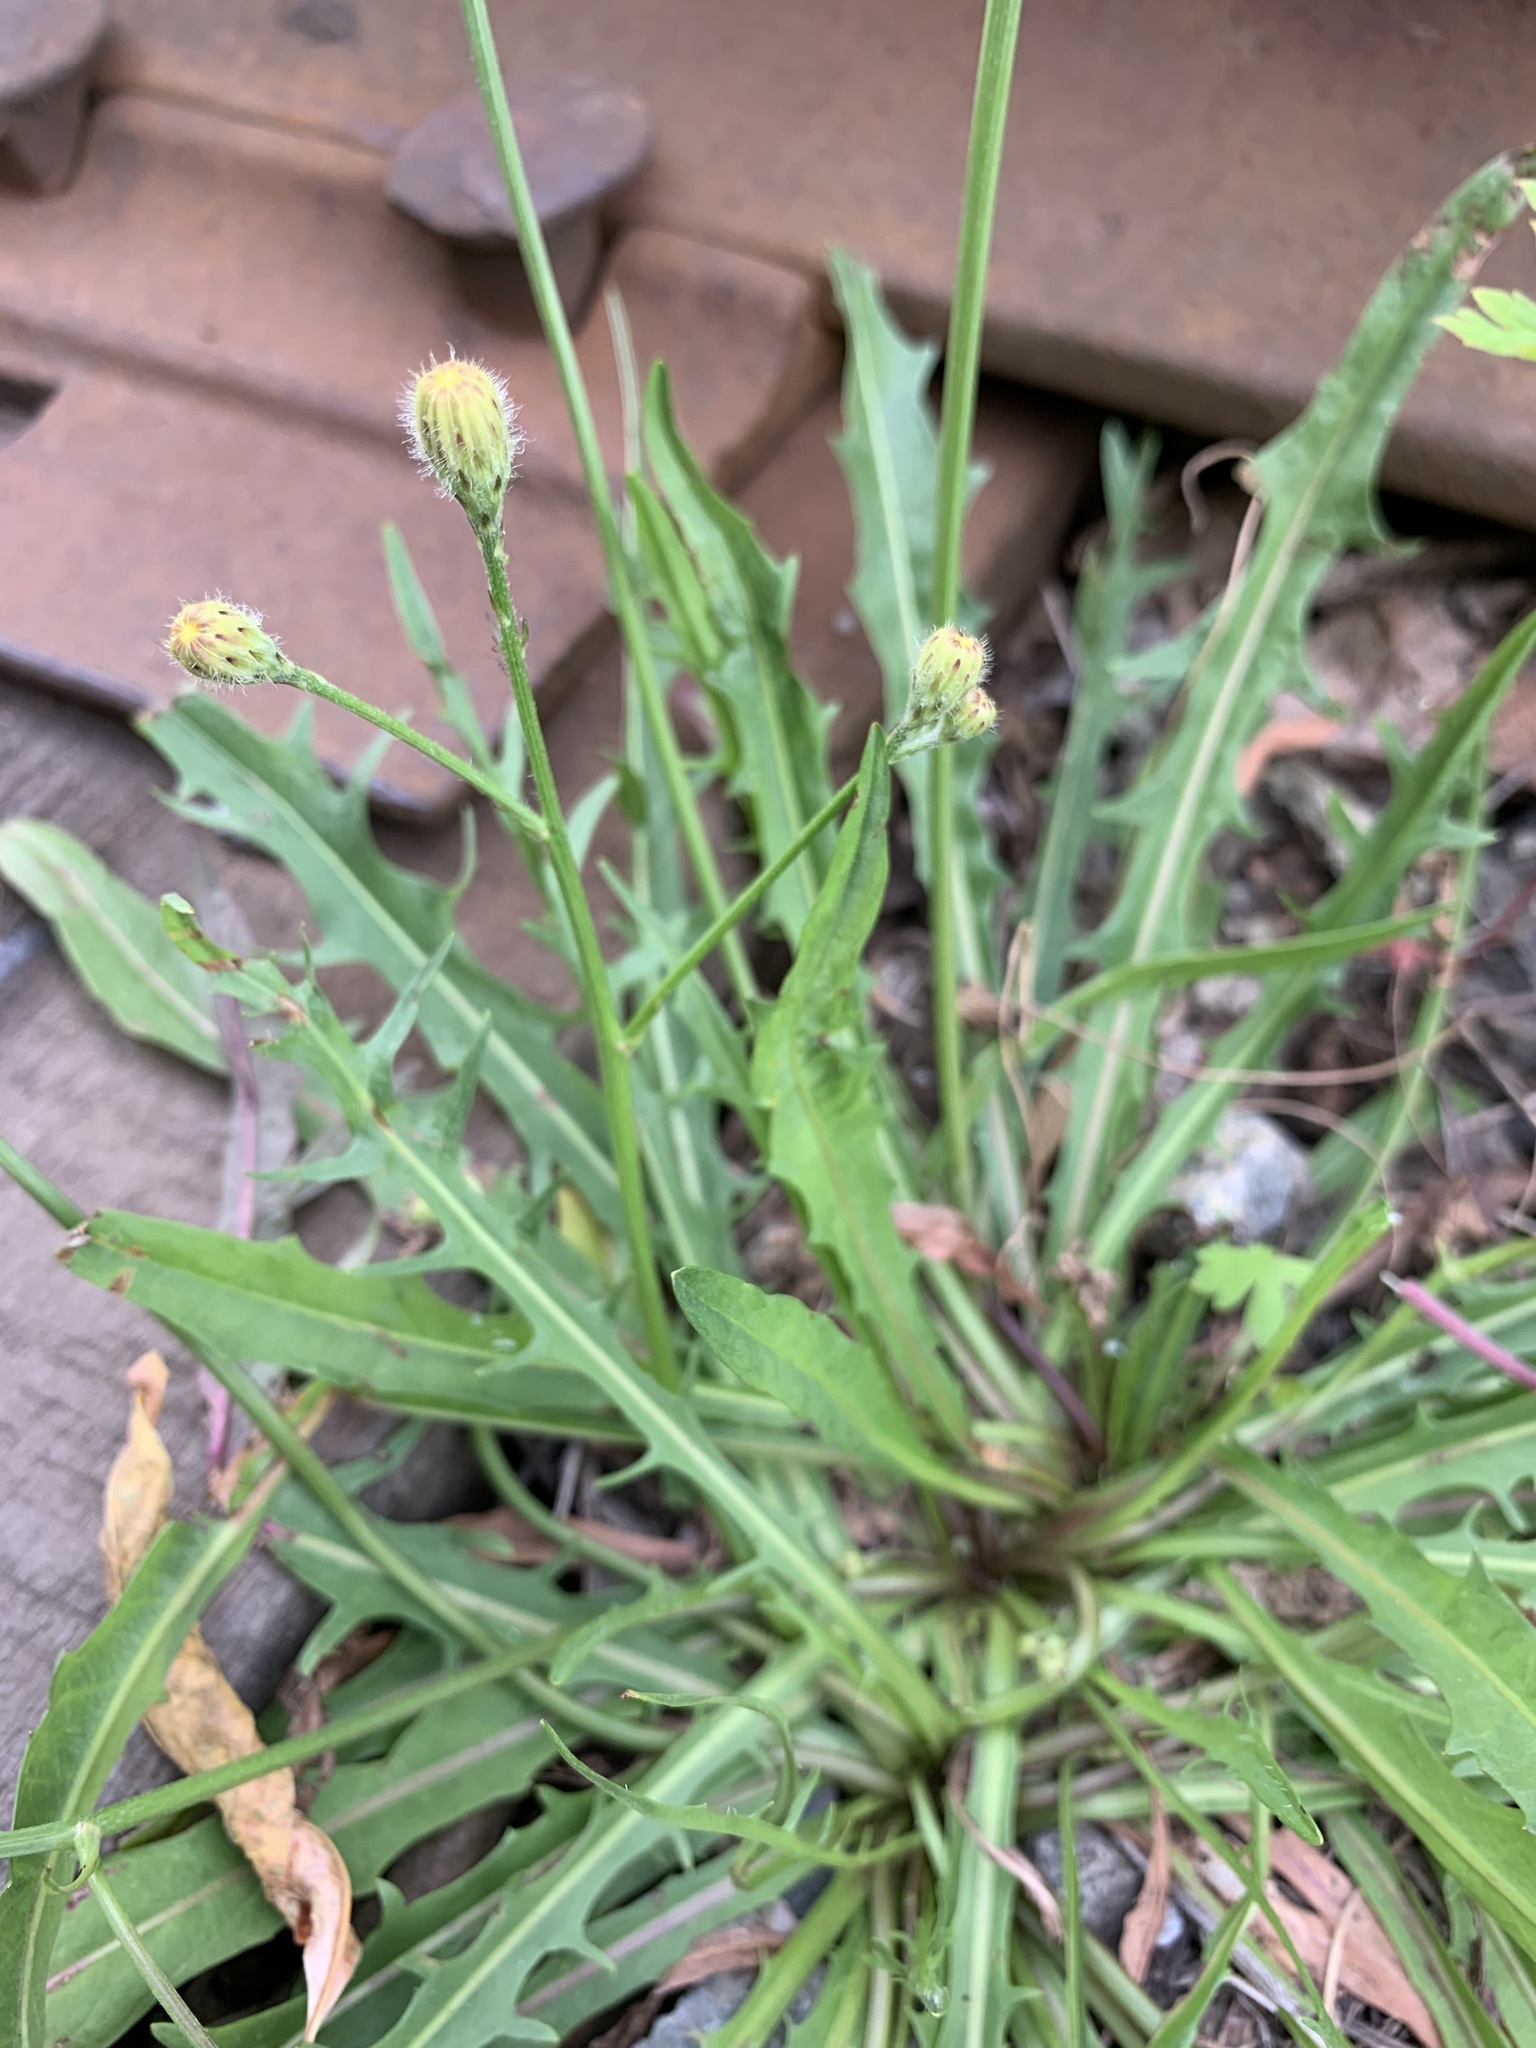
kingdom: Plantae
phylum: Tracheophyta
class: Magnoliopsida
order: Asterales
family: Asteraceae
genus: Scorzoneroides
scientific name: Scorzoneroides autumnalis
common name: Autumn hawkbit
